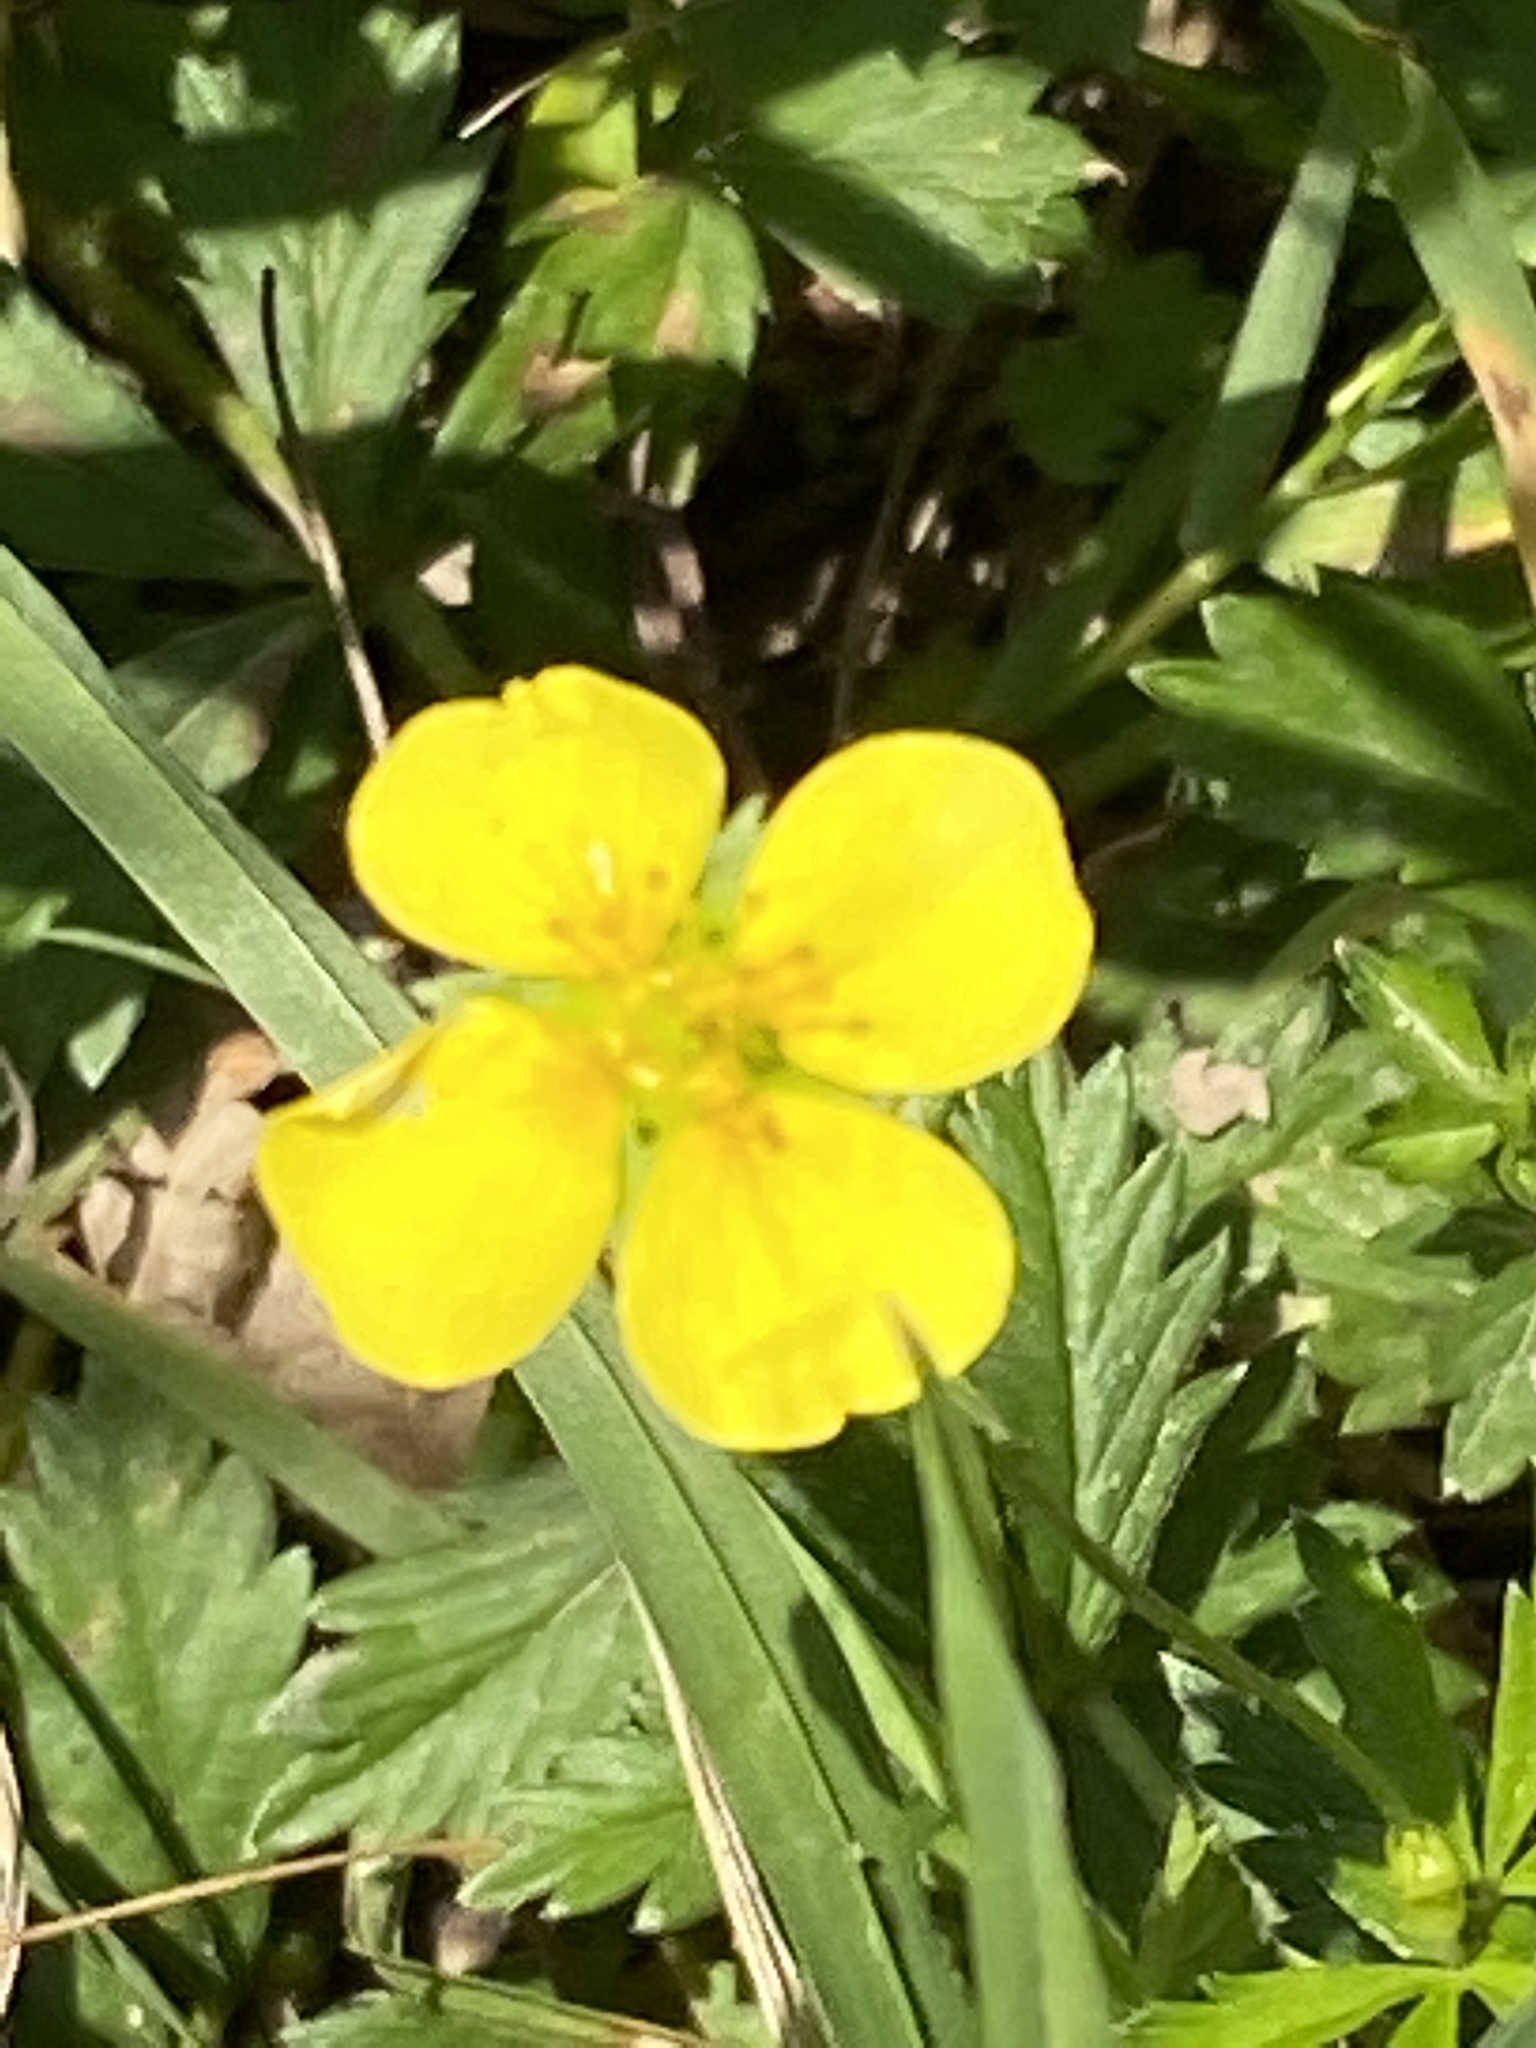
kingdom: Plantae
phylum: Tracheophyta
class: Magnoliopsida
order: Rosales
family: Rosaceae
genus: Potentilla
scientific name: Potentilla erecta
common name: Tormentil
